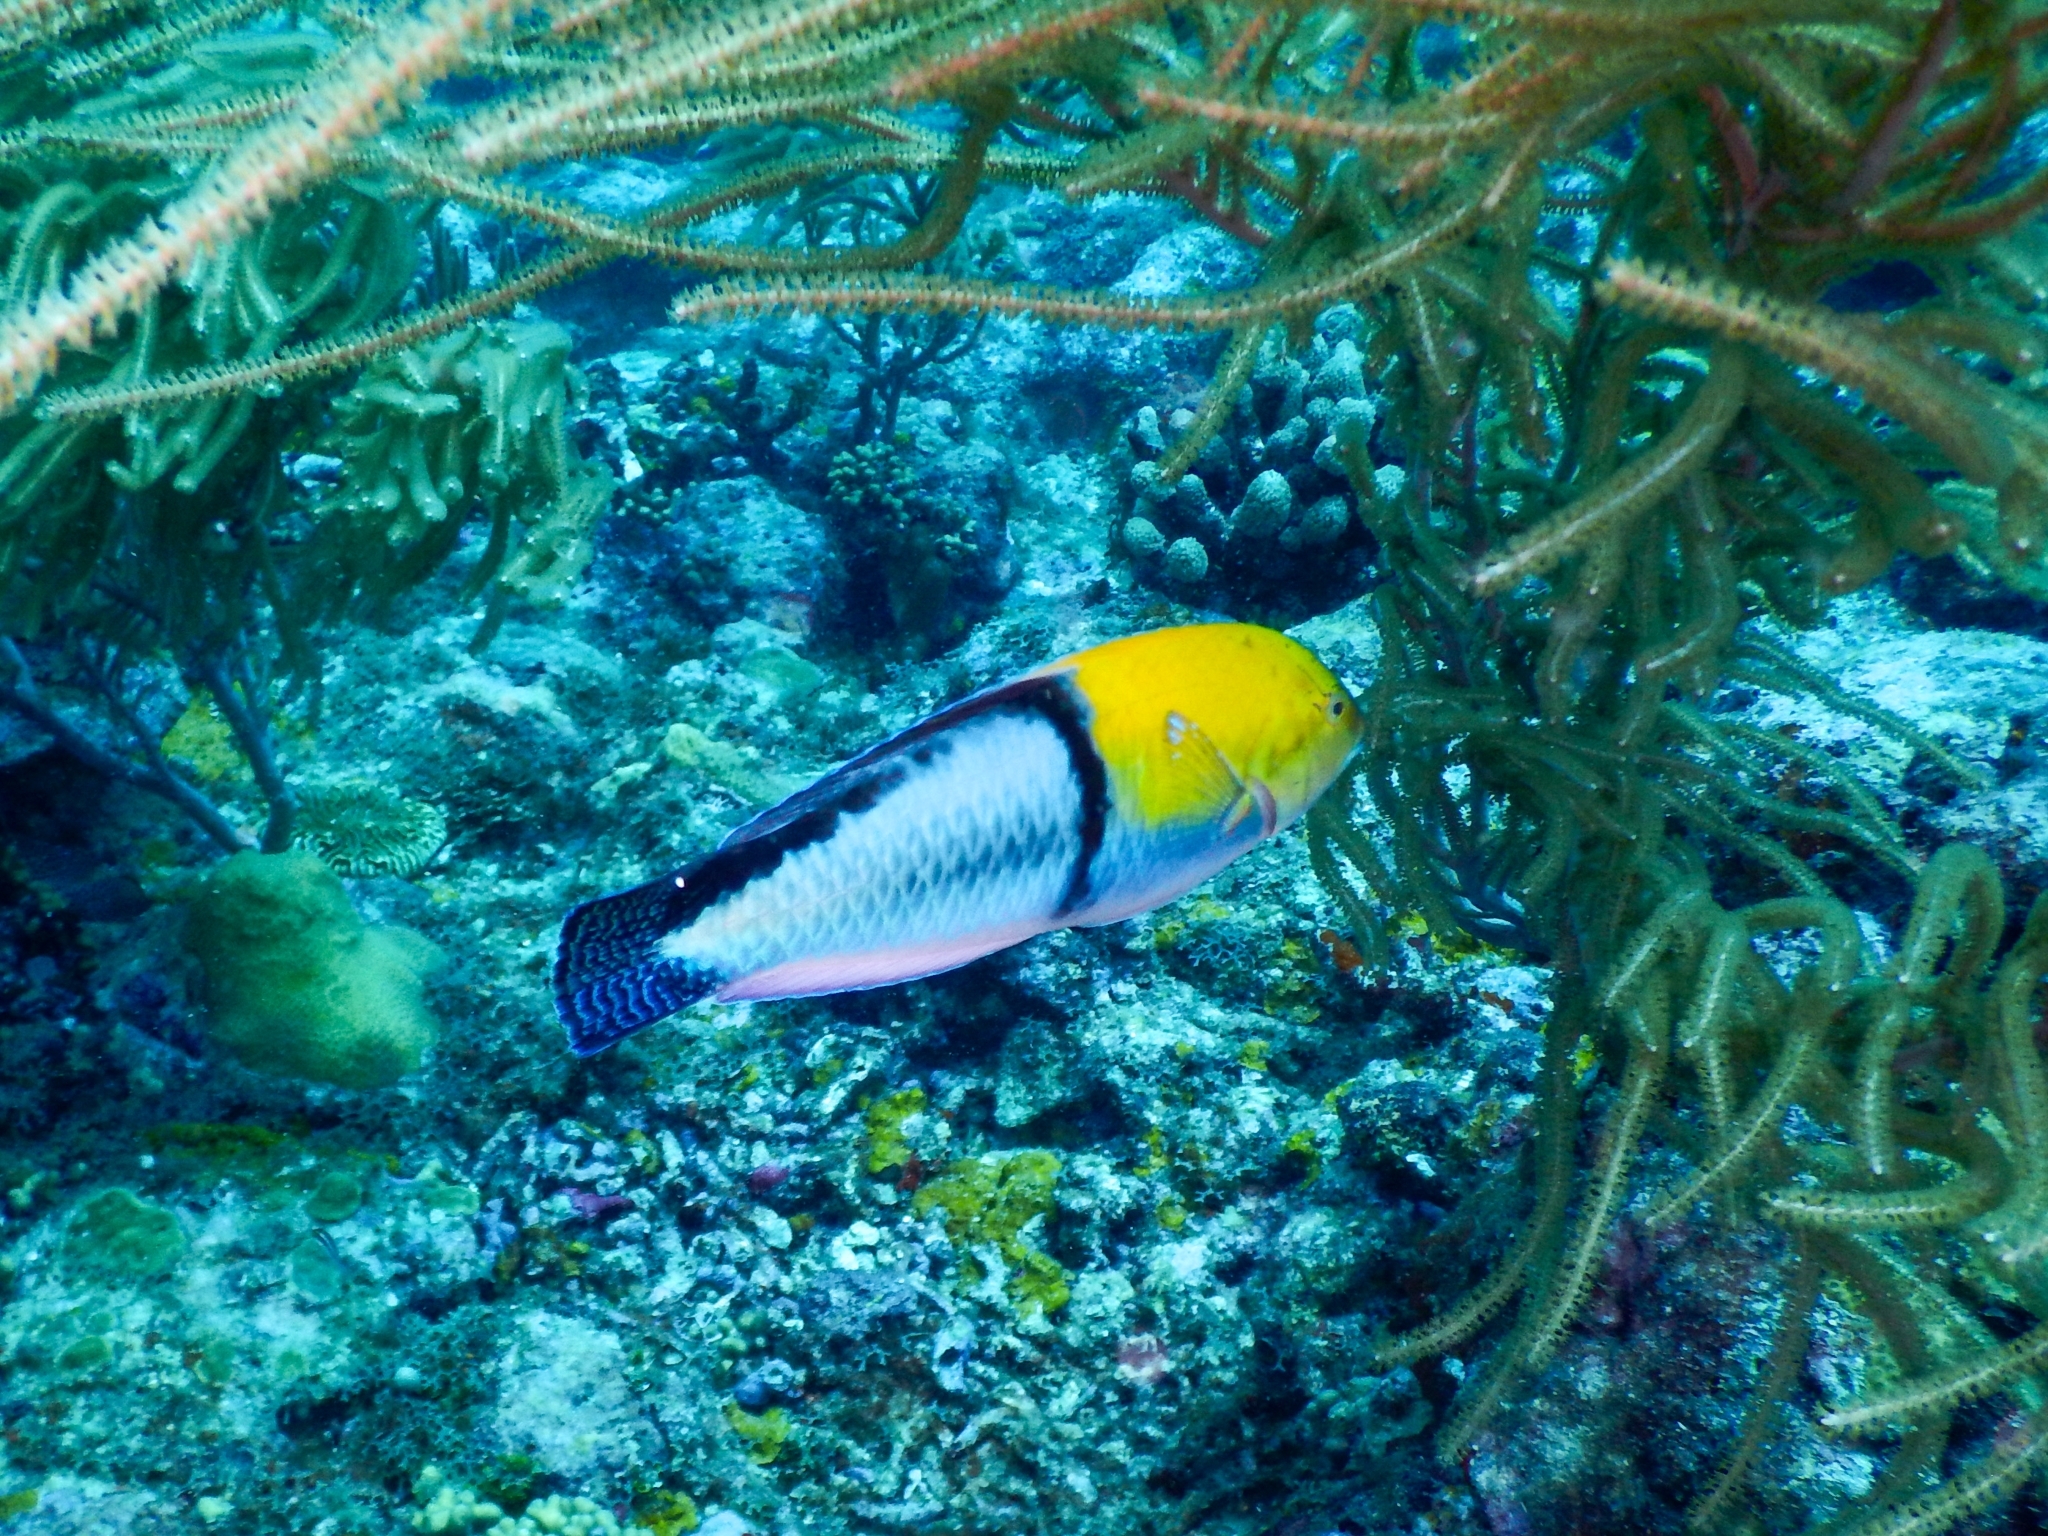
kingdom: Animalia
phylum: Chordata
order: Perciformes
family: Labridae
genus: Halichoeres
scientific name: Halichoeres garnoti
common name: Yellowhead wrasse
